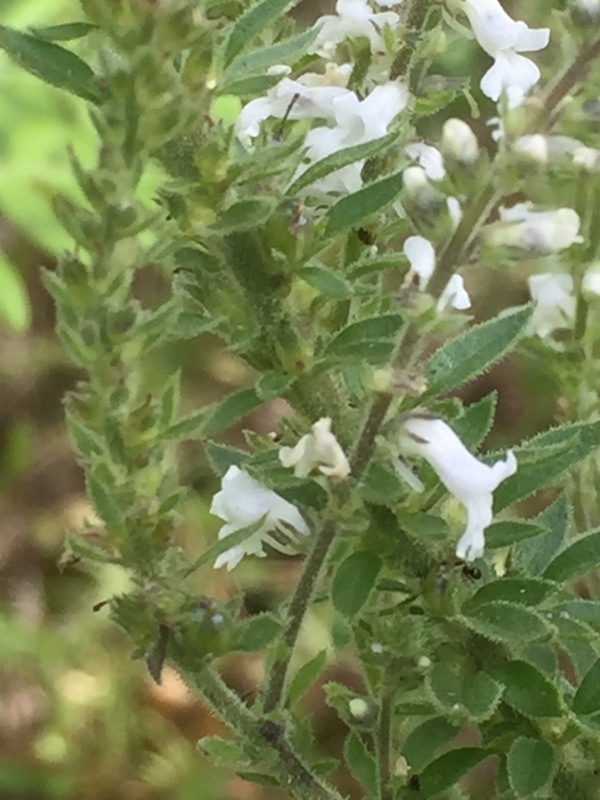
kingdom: Plantae
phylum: Tracheophyta
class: Magnoliopsida
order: Lamiales
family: Plantaginaceae
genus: Anarrhinum
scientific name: Anarrhinum duriminium
